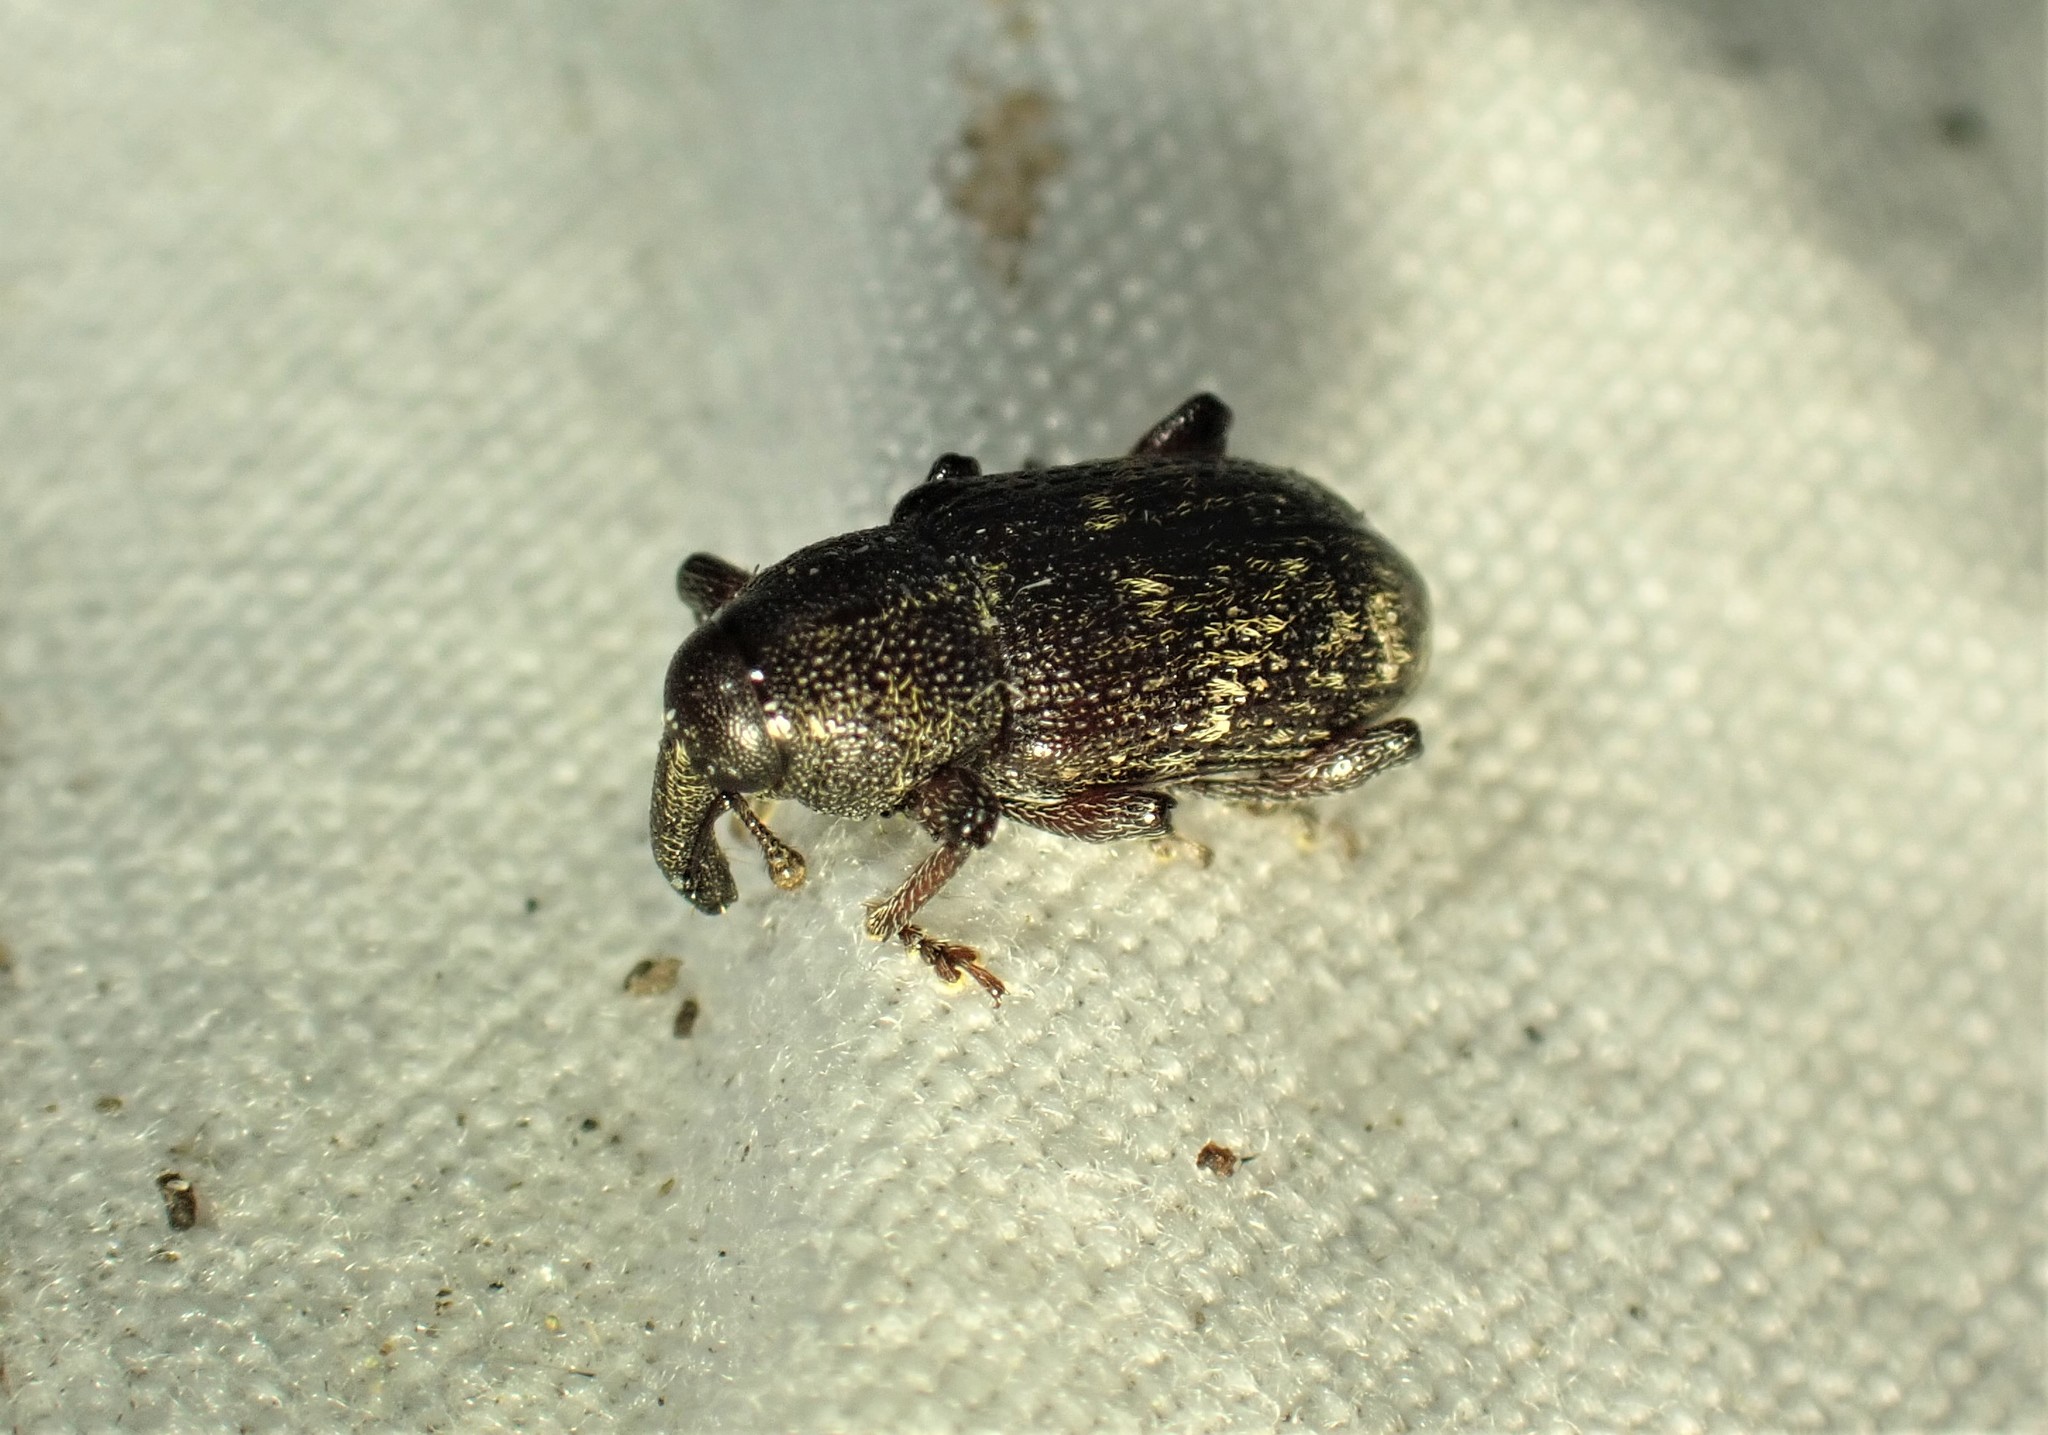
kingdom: Animalia
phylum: Arthropoda
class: Insecta
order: Coleoptera
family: Curculionidae
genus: Hylobius
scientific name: Hylobius congener
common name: Seedling debarking weevil
